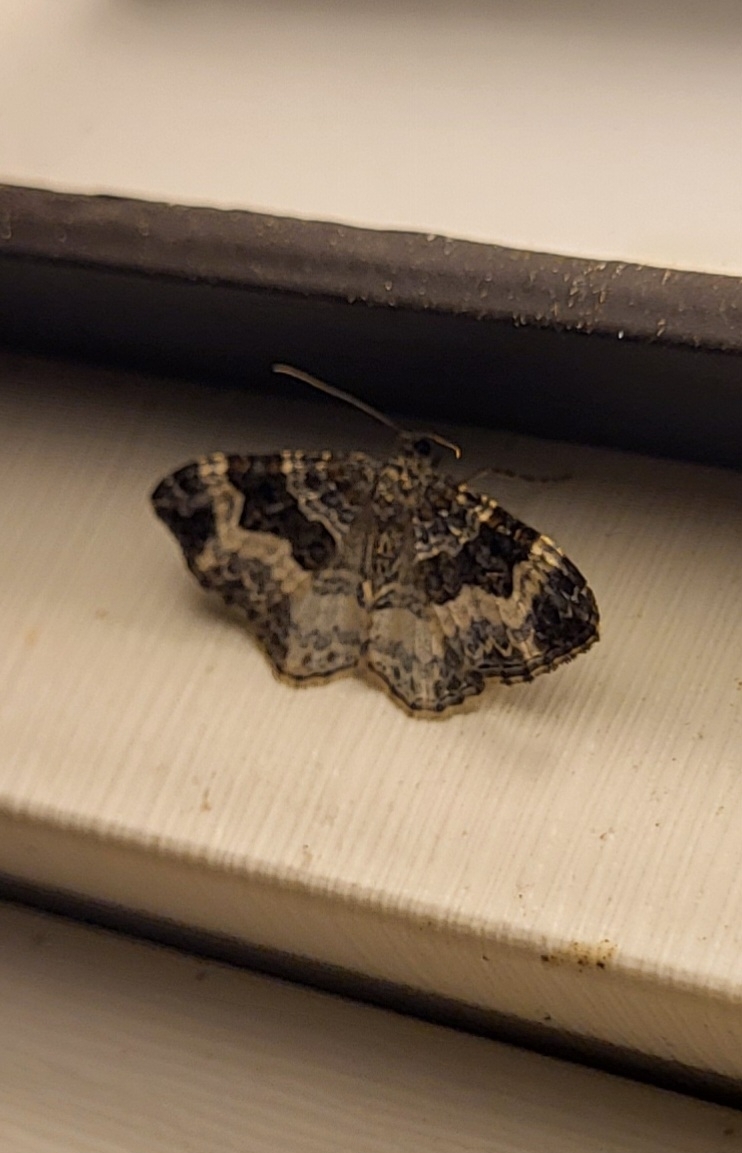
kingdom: Animalia
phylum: Arthropoda
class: Insecta
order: Lepidoptera
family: Geometridae
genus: Epirrhoe
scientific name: Epirrhoe alternata
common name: Common carpet
